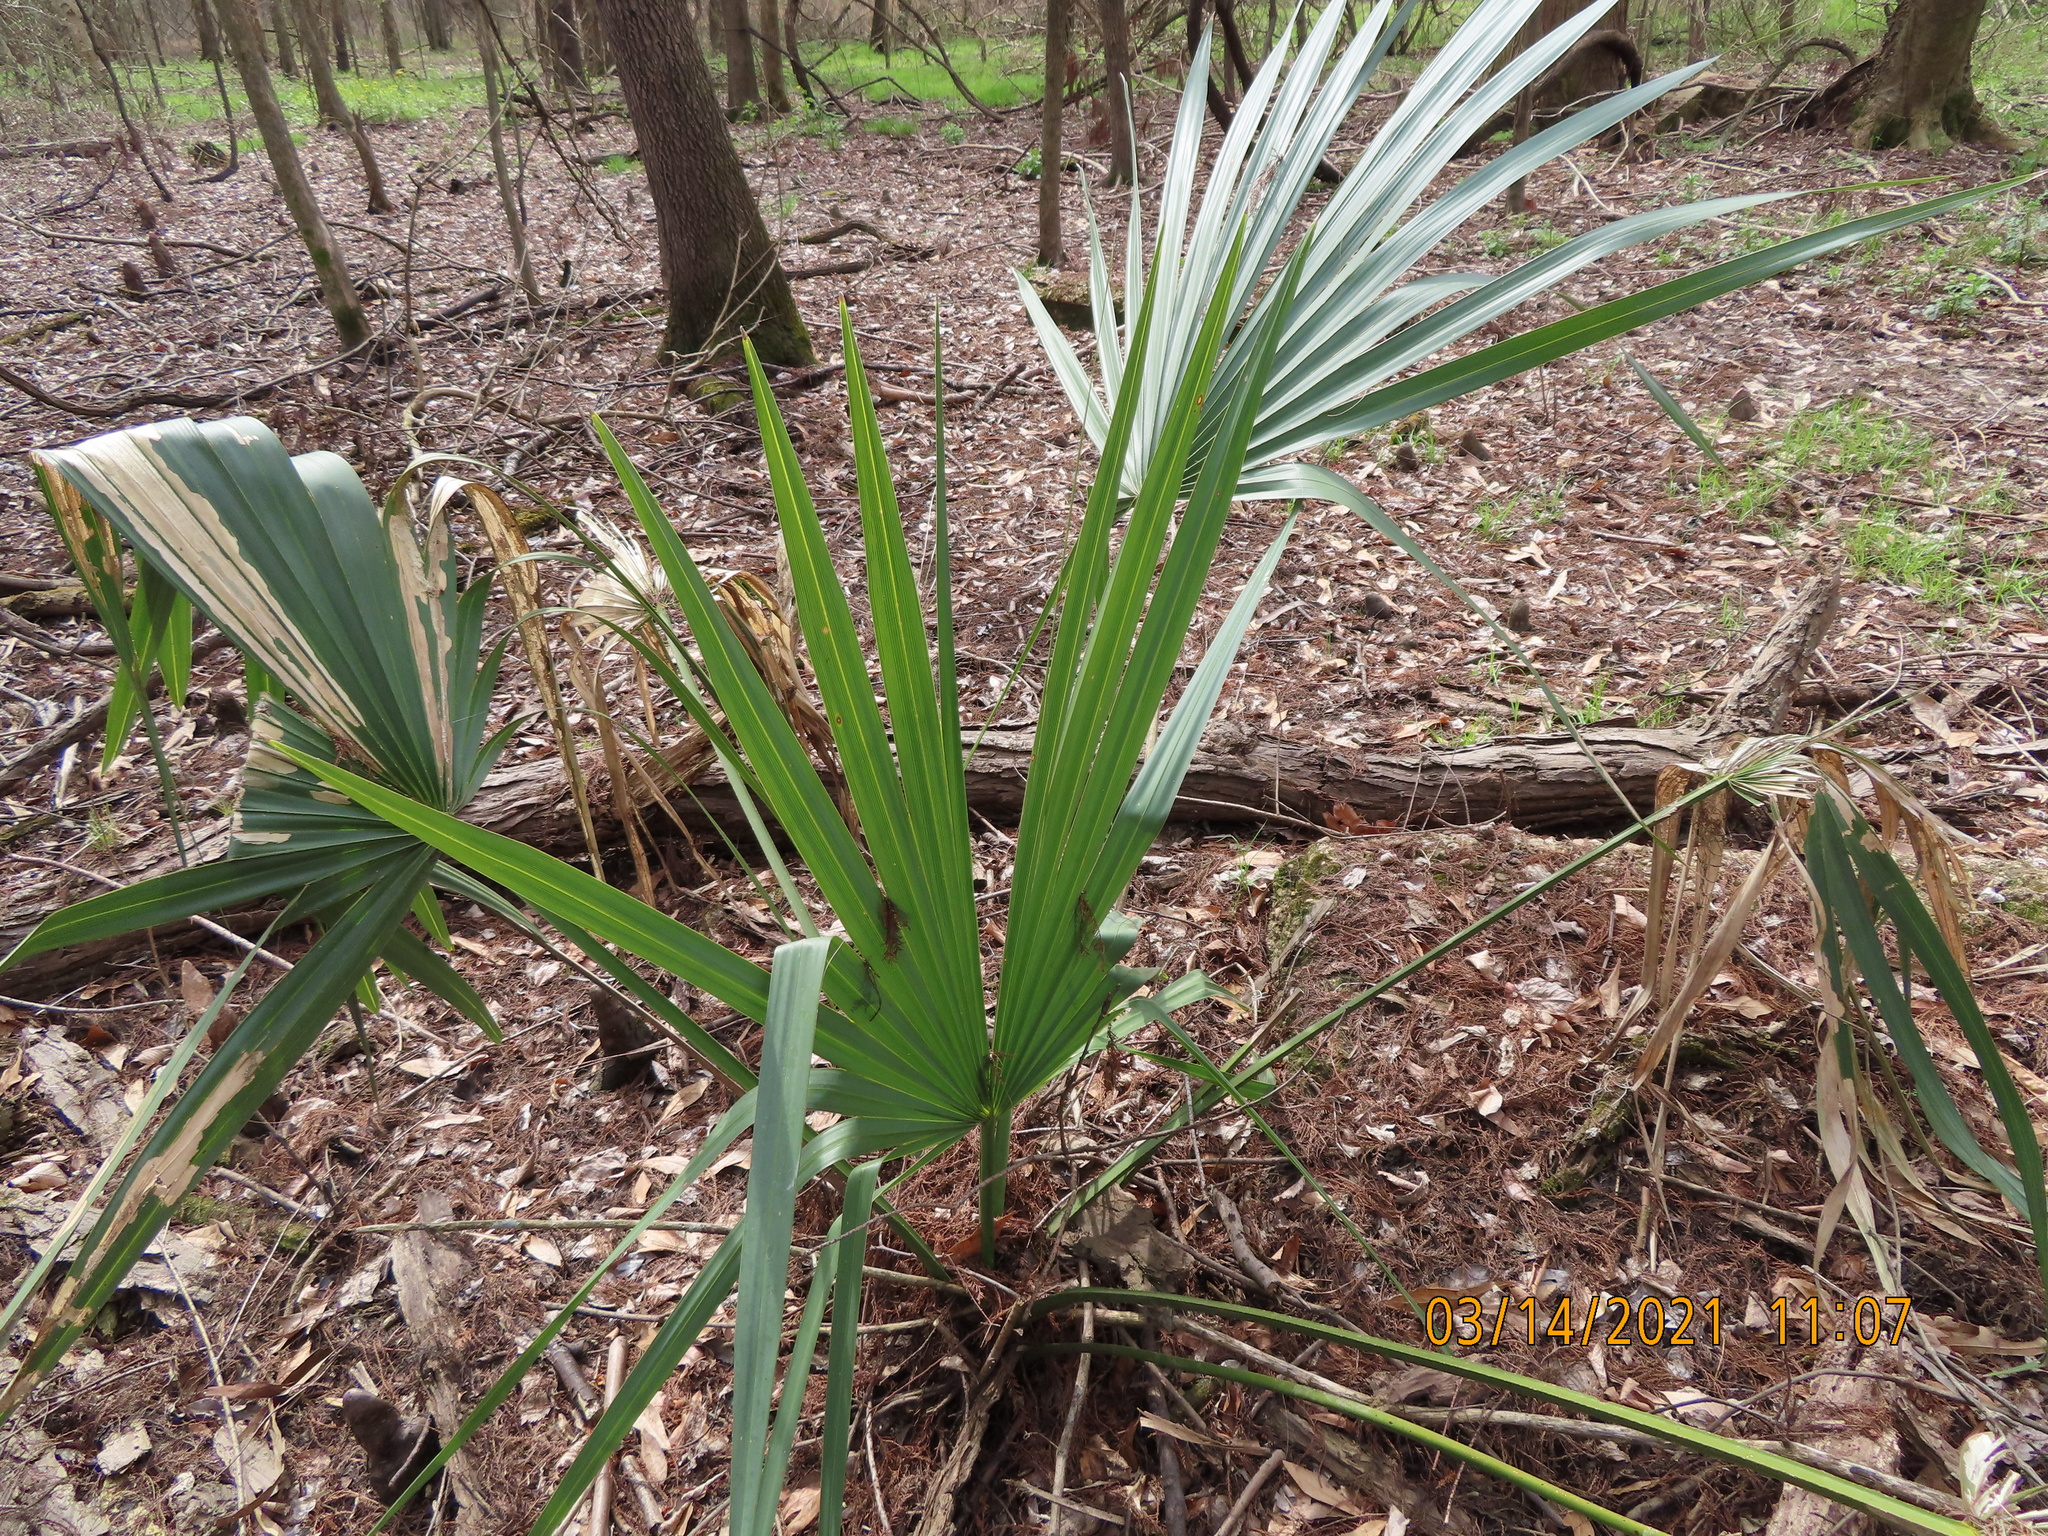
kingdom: Plantae
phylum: Tracheophyta
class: Liliopsida
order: Arecales
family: Arecaceae
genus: Sabal
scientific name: Sabal minor
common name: Dwarf palmetto
